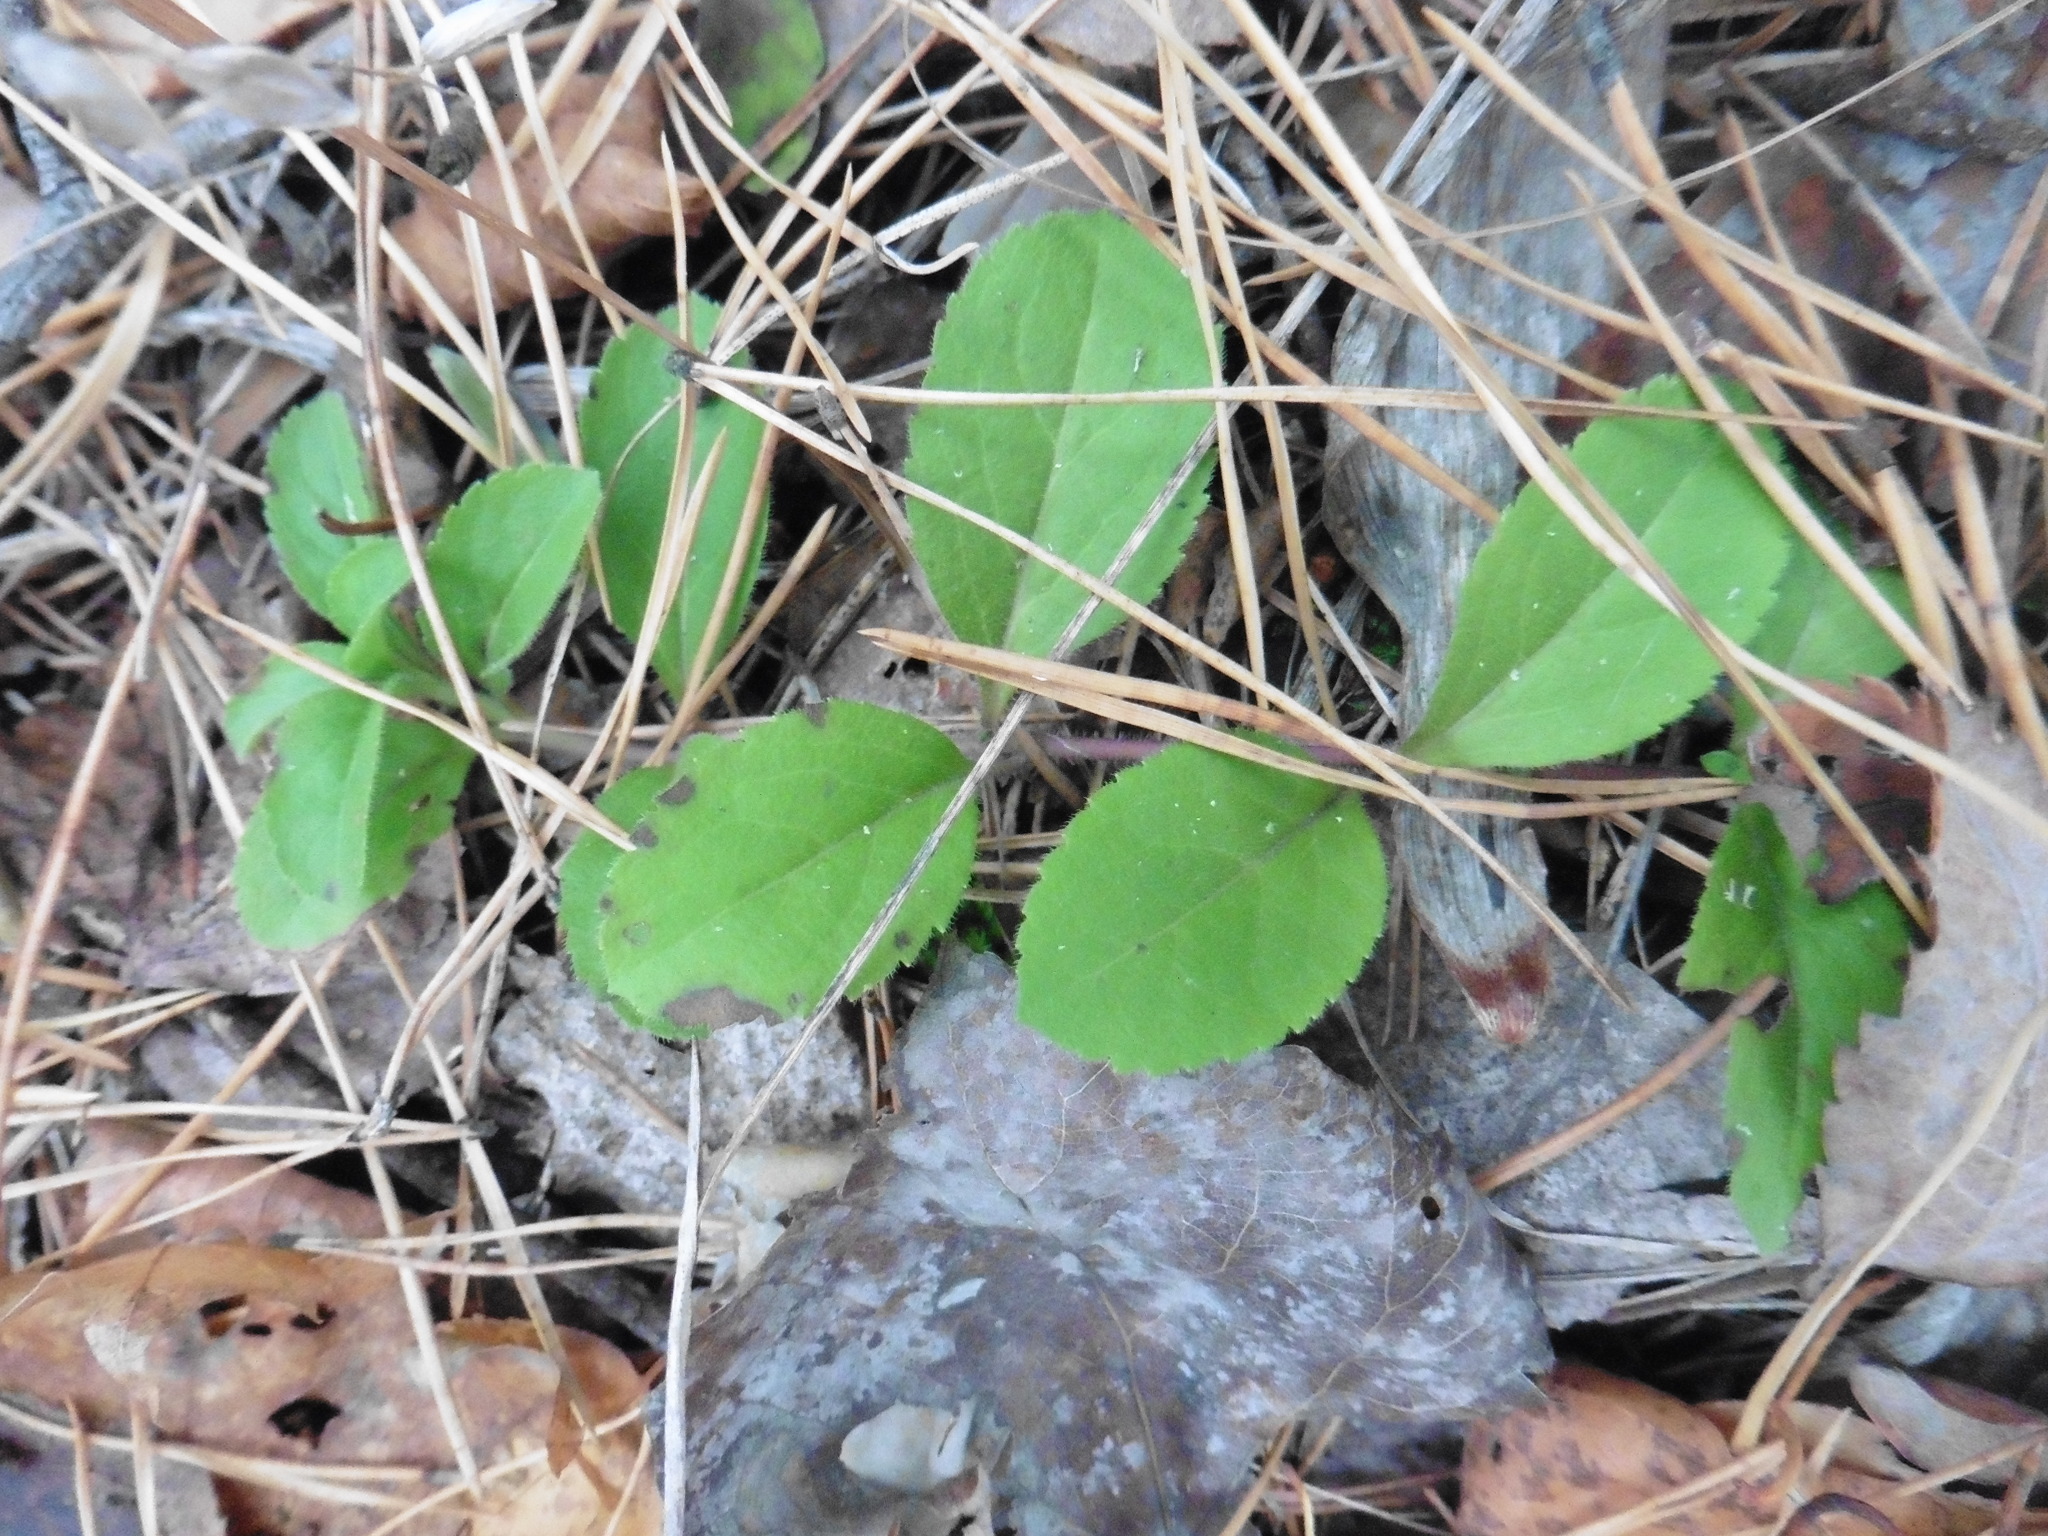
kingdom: Plantae
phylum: Tracheophyta
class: Magnoliopsida
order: Lamiales
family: Plantaginaceae
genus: Veronica
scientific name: Veronica officinalis
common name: Common speedwell
